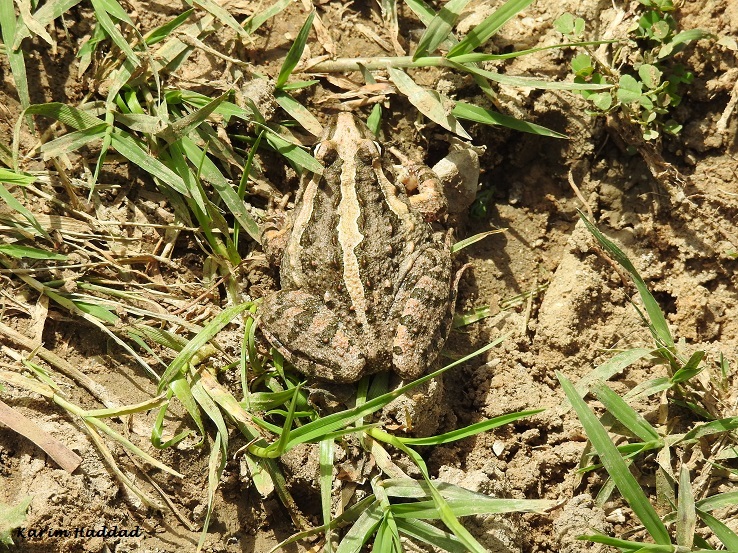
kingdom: Animalia
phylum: Chordata
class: Amphibia
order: Anura
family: Alytidae
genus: Discoglossus
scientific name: Discoglossus pictus
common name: Painted frog
